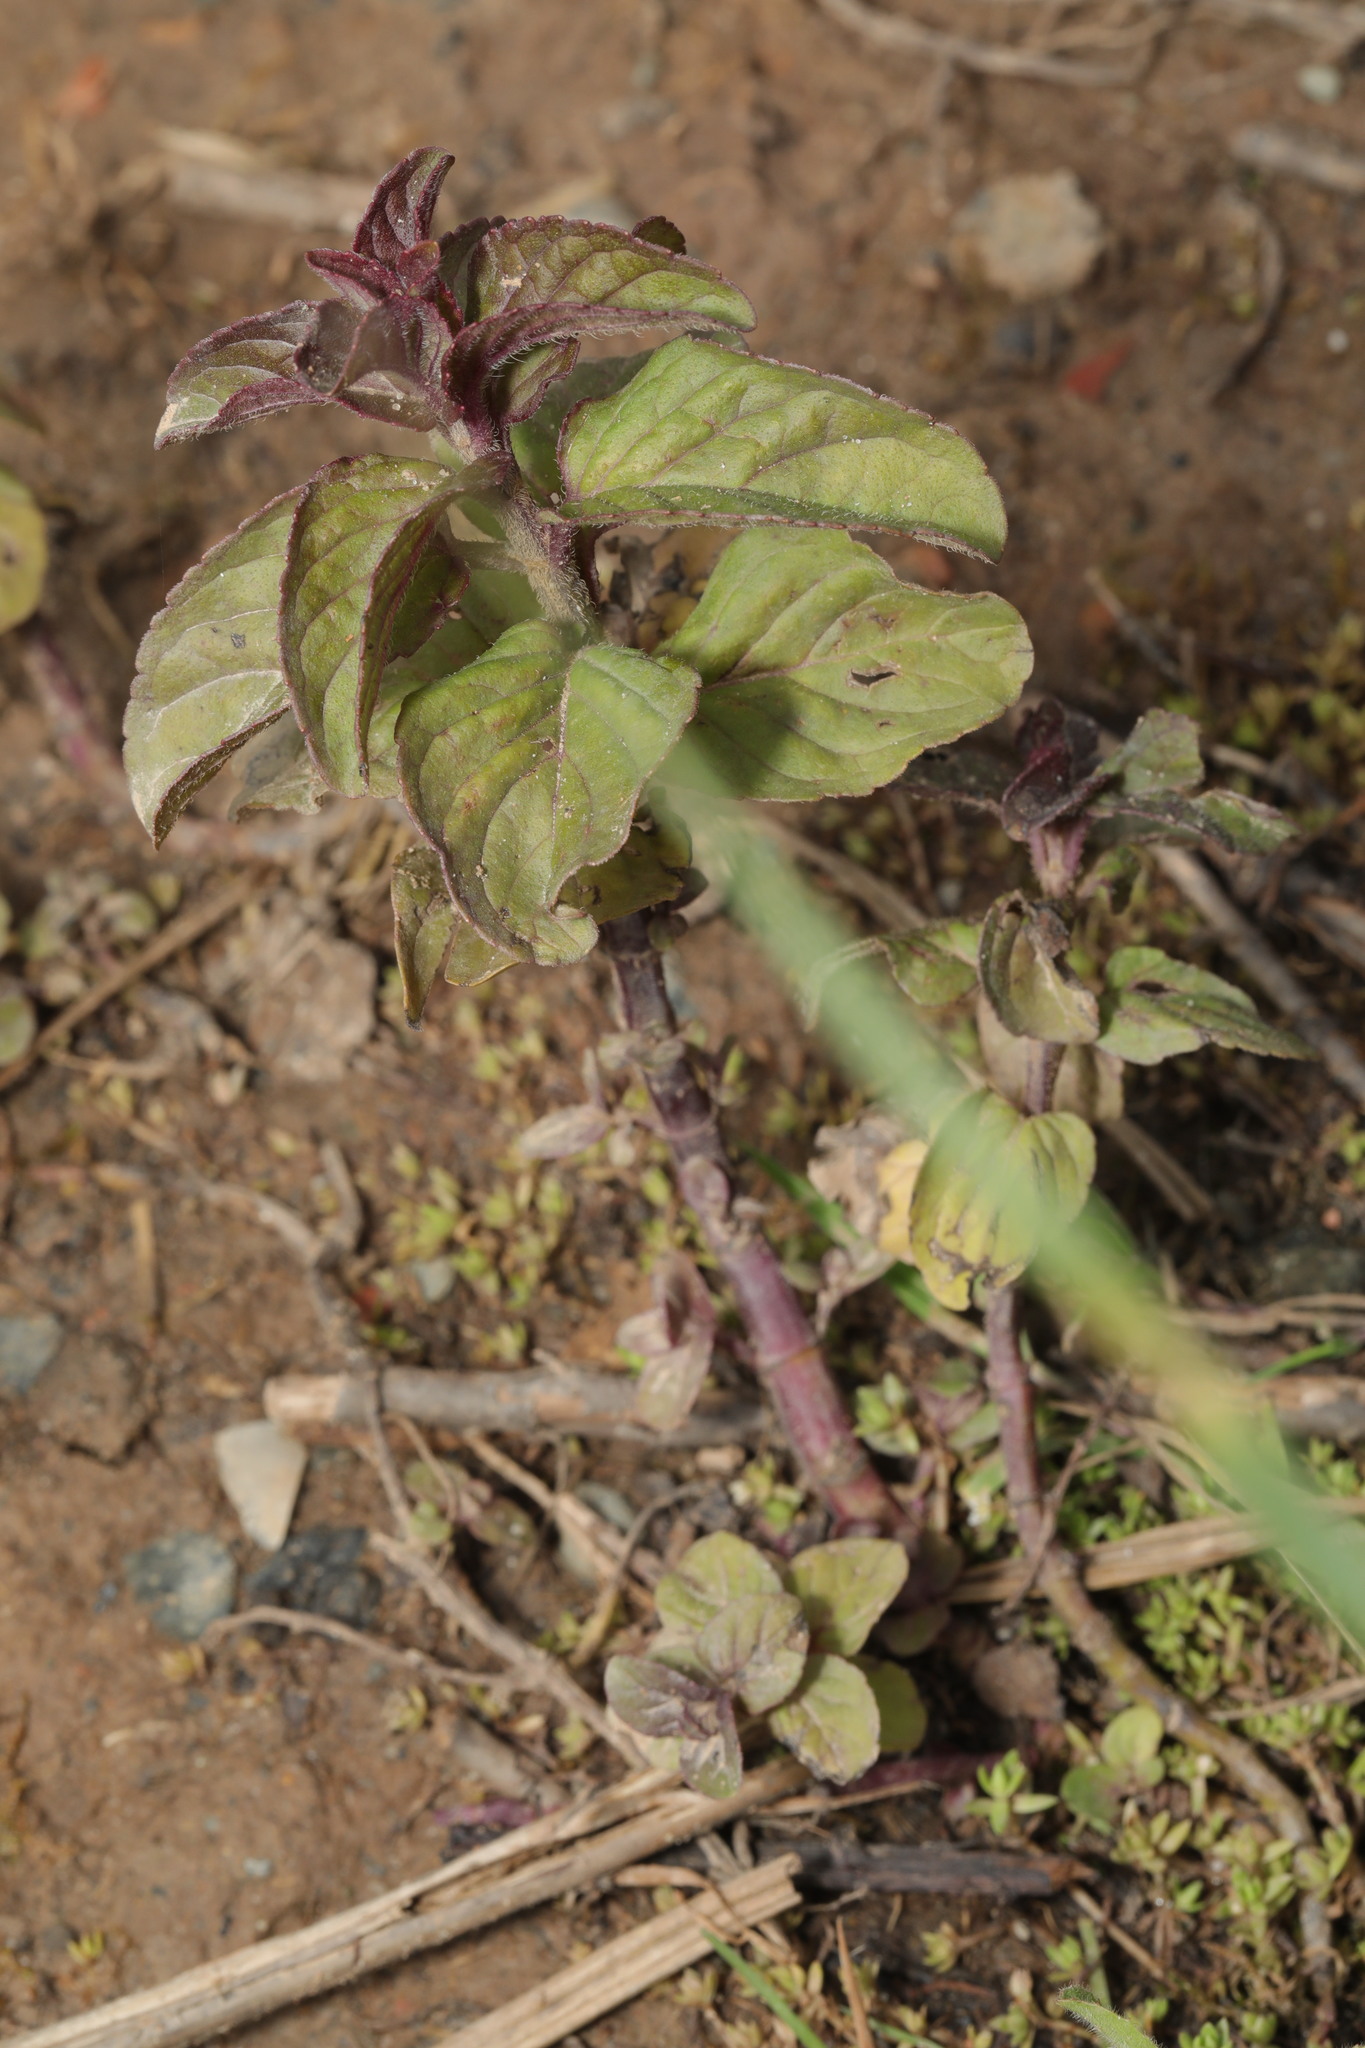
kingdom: Plantae
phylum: Tracheophyta
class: Magnoliopsida
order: Lamiales
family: Lamiaceae
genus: Mentha
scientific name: Mentha aquatica
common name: Water mint
